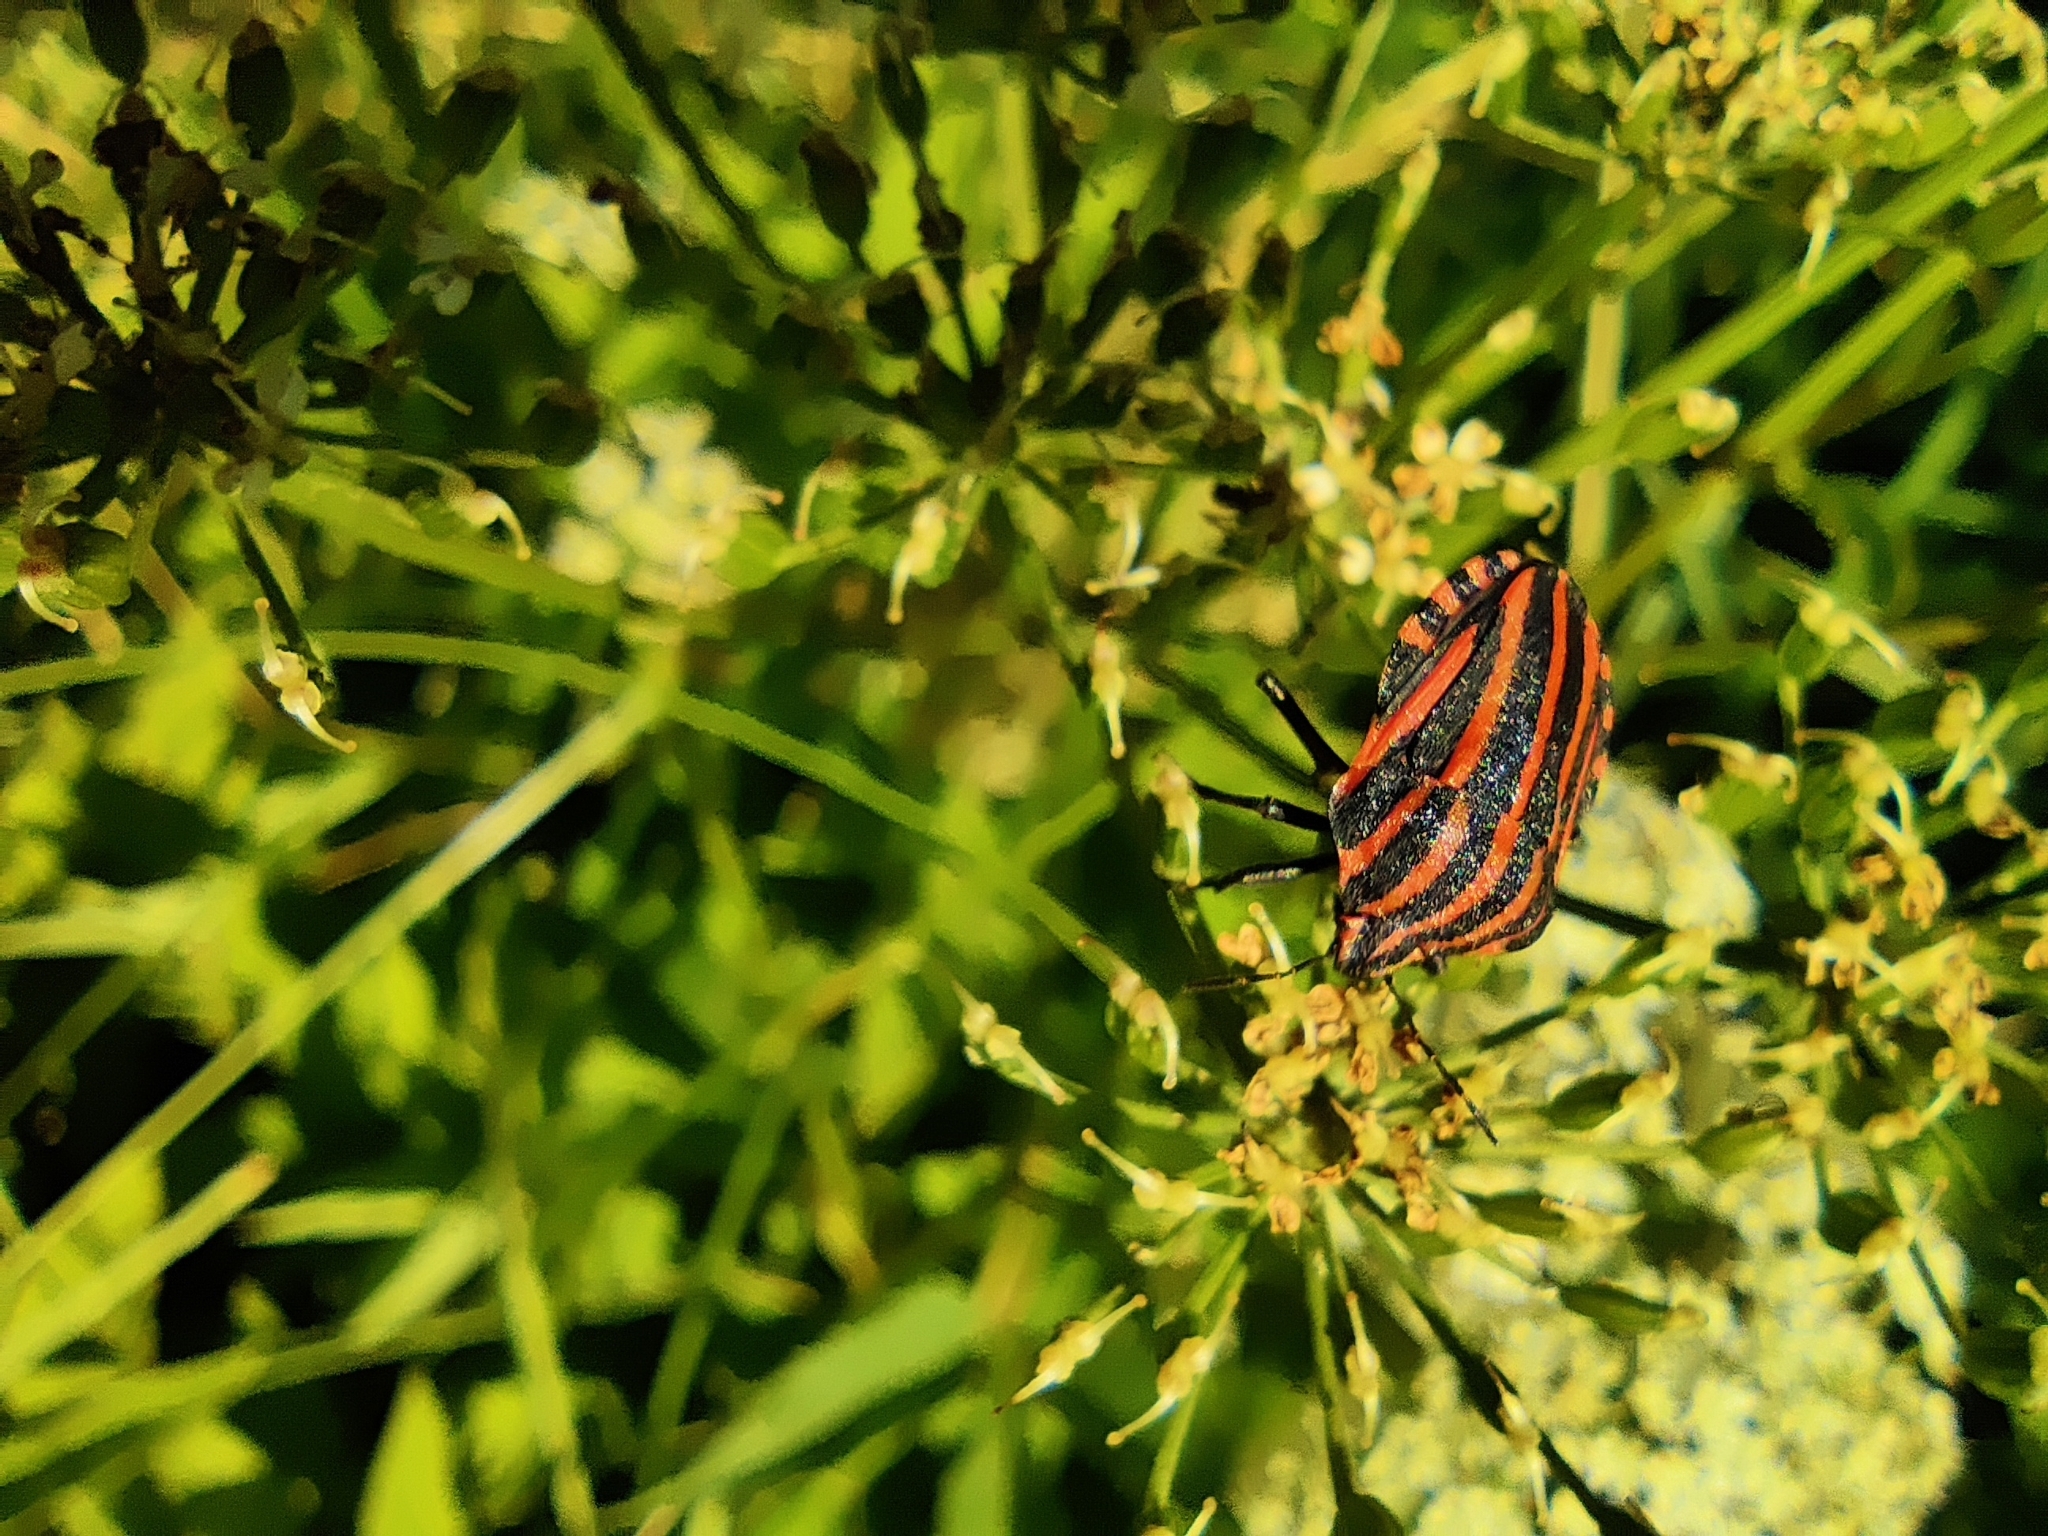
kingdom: Animalia
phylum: Arthropoda
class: Insecta
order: Hemiptera
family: Pentatomidae
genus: Graphosoma
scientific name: Graphosoma italicum
